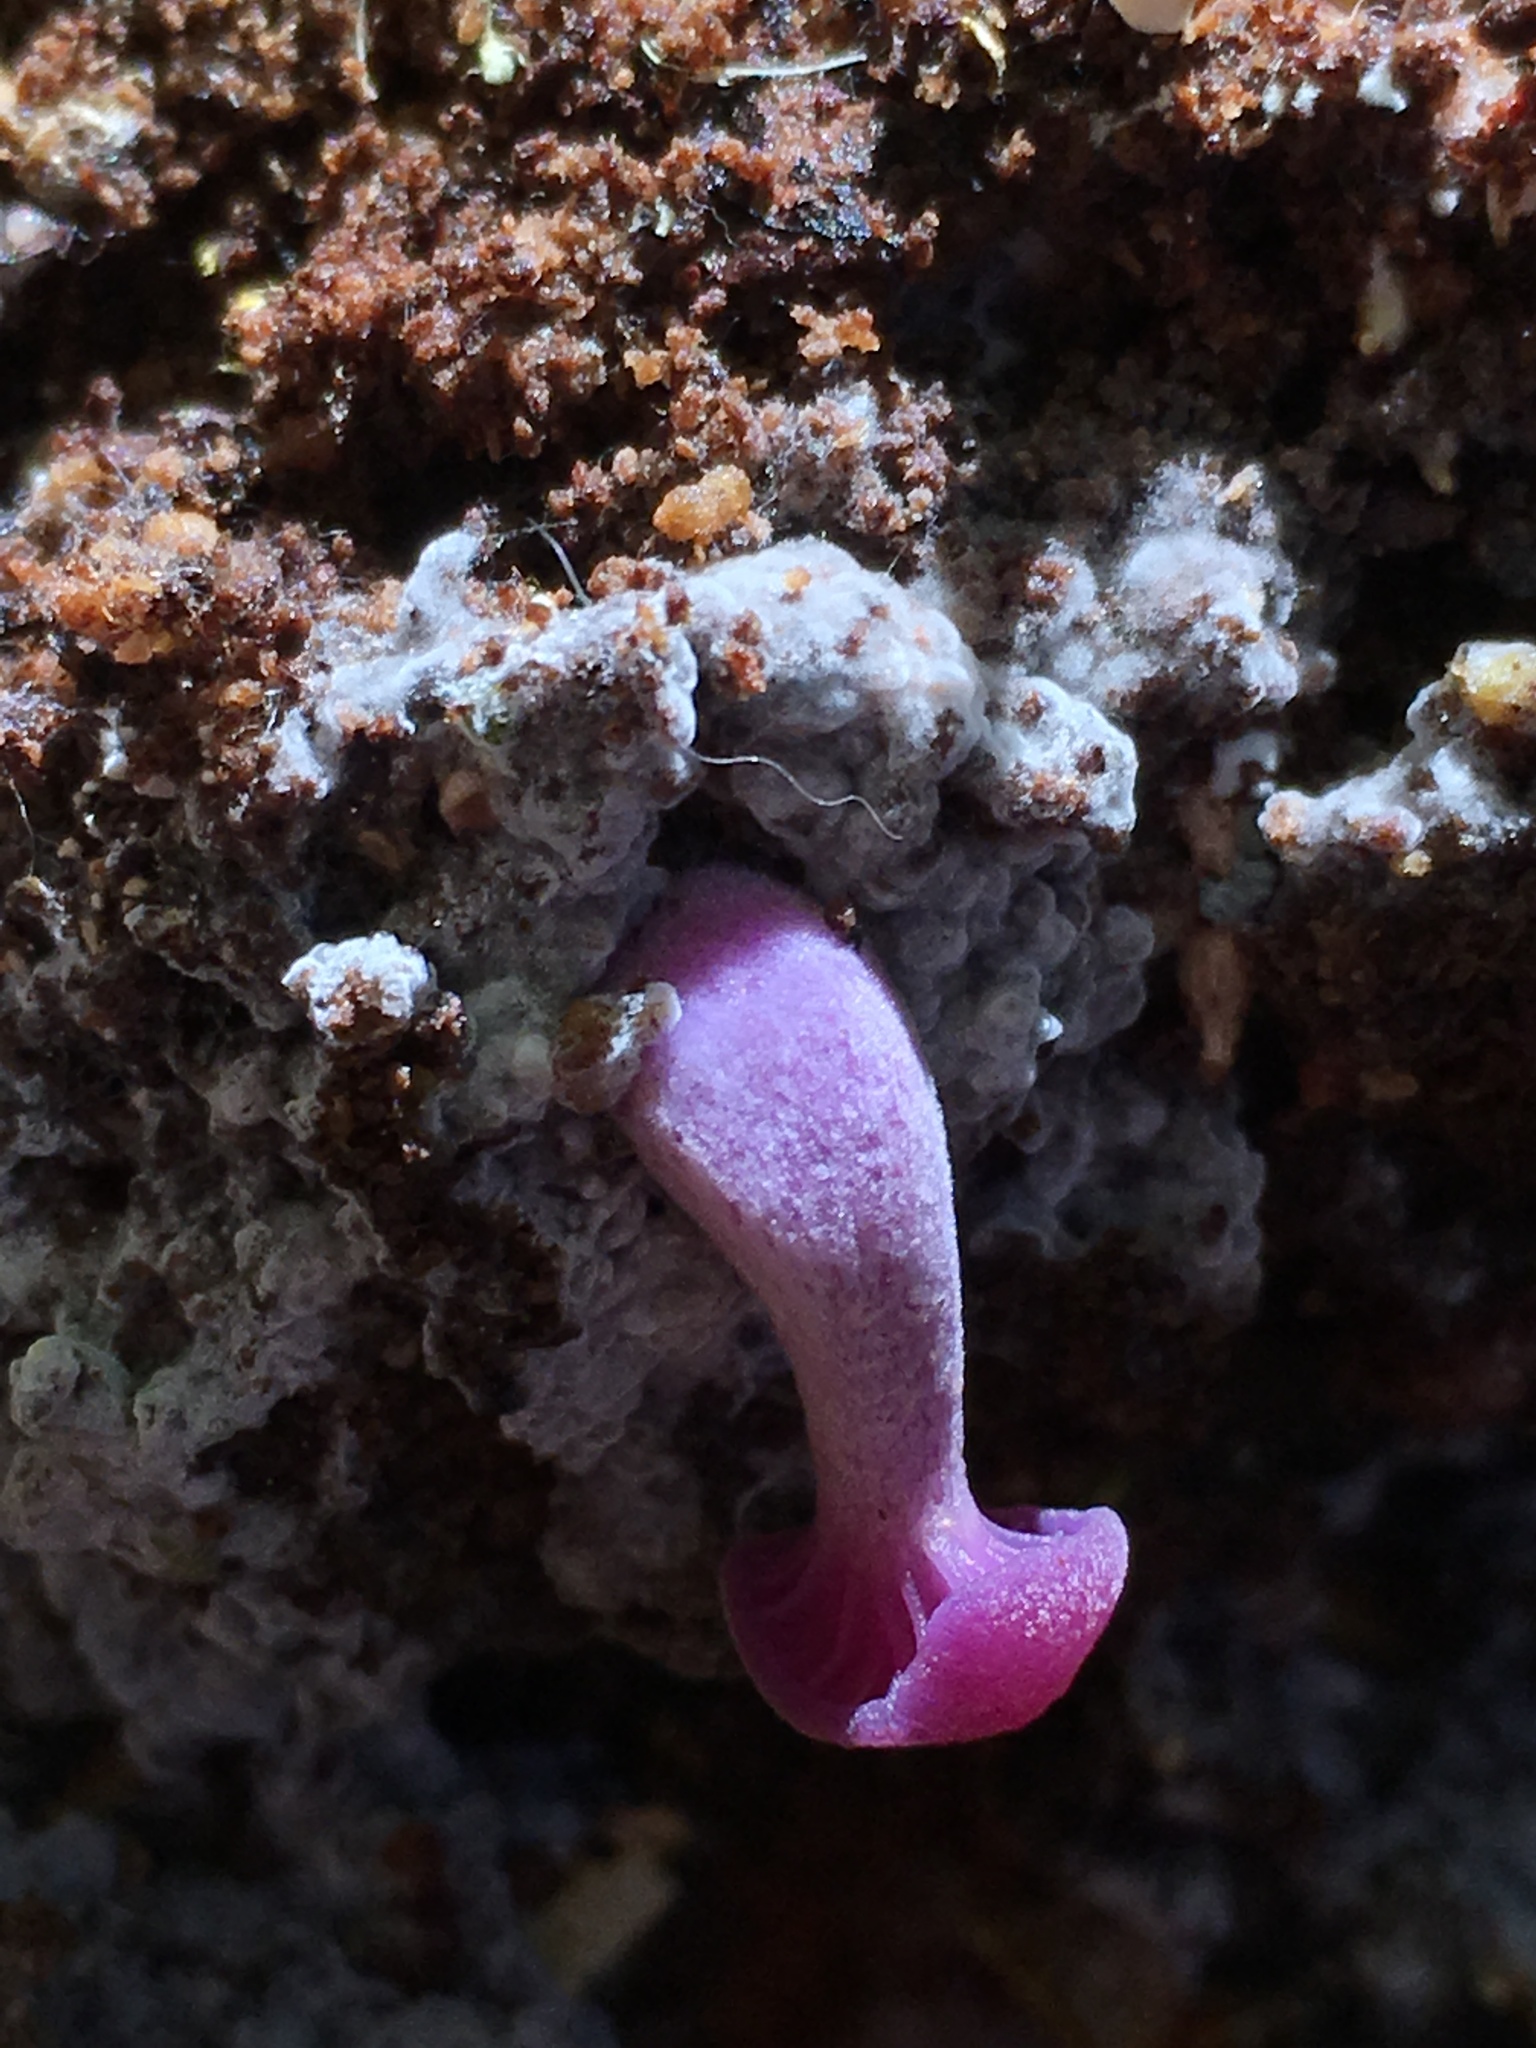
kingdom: Fungi
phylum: Basidiomycota
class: Agaricomycetes
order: Agaricales
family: Hydnangiaceae
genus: Laccaria
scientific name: Laccaria amethystina
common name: Amethyst deceiver
